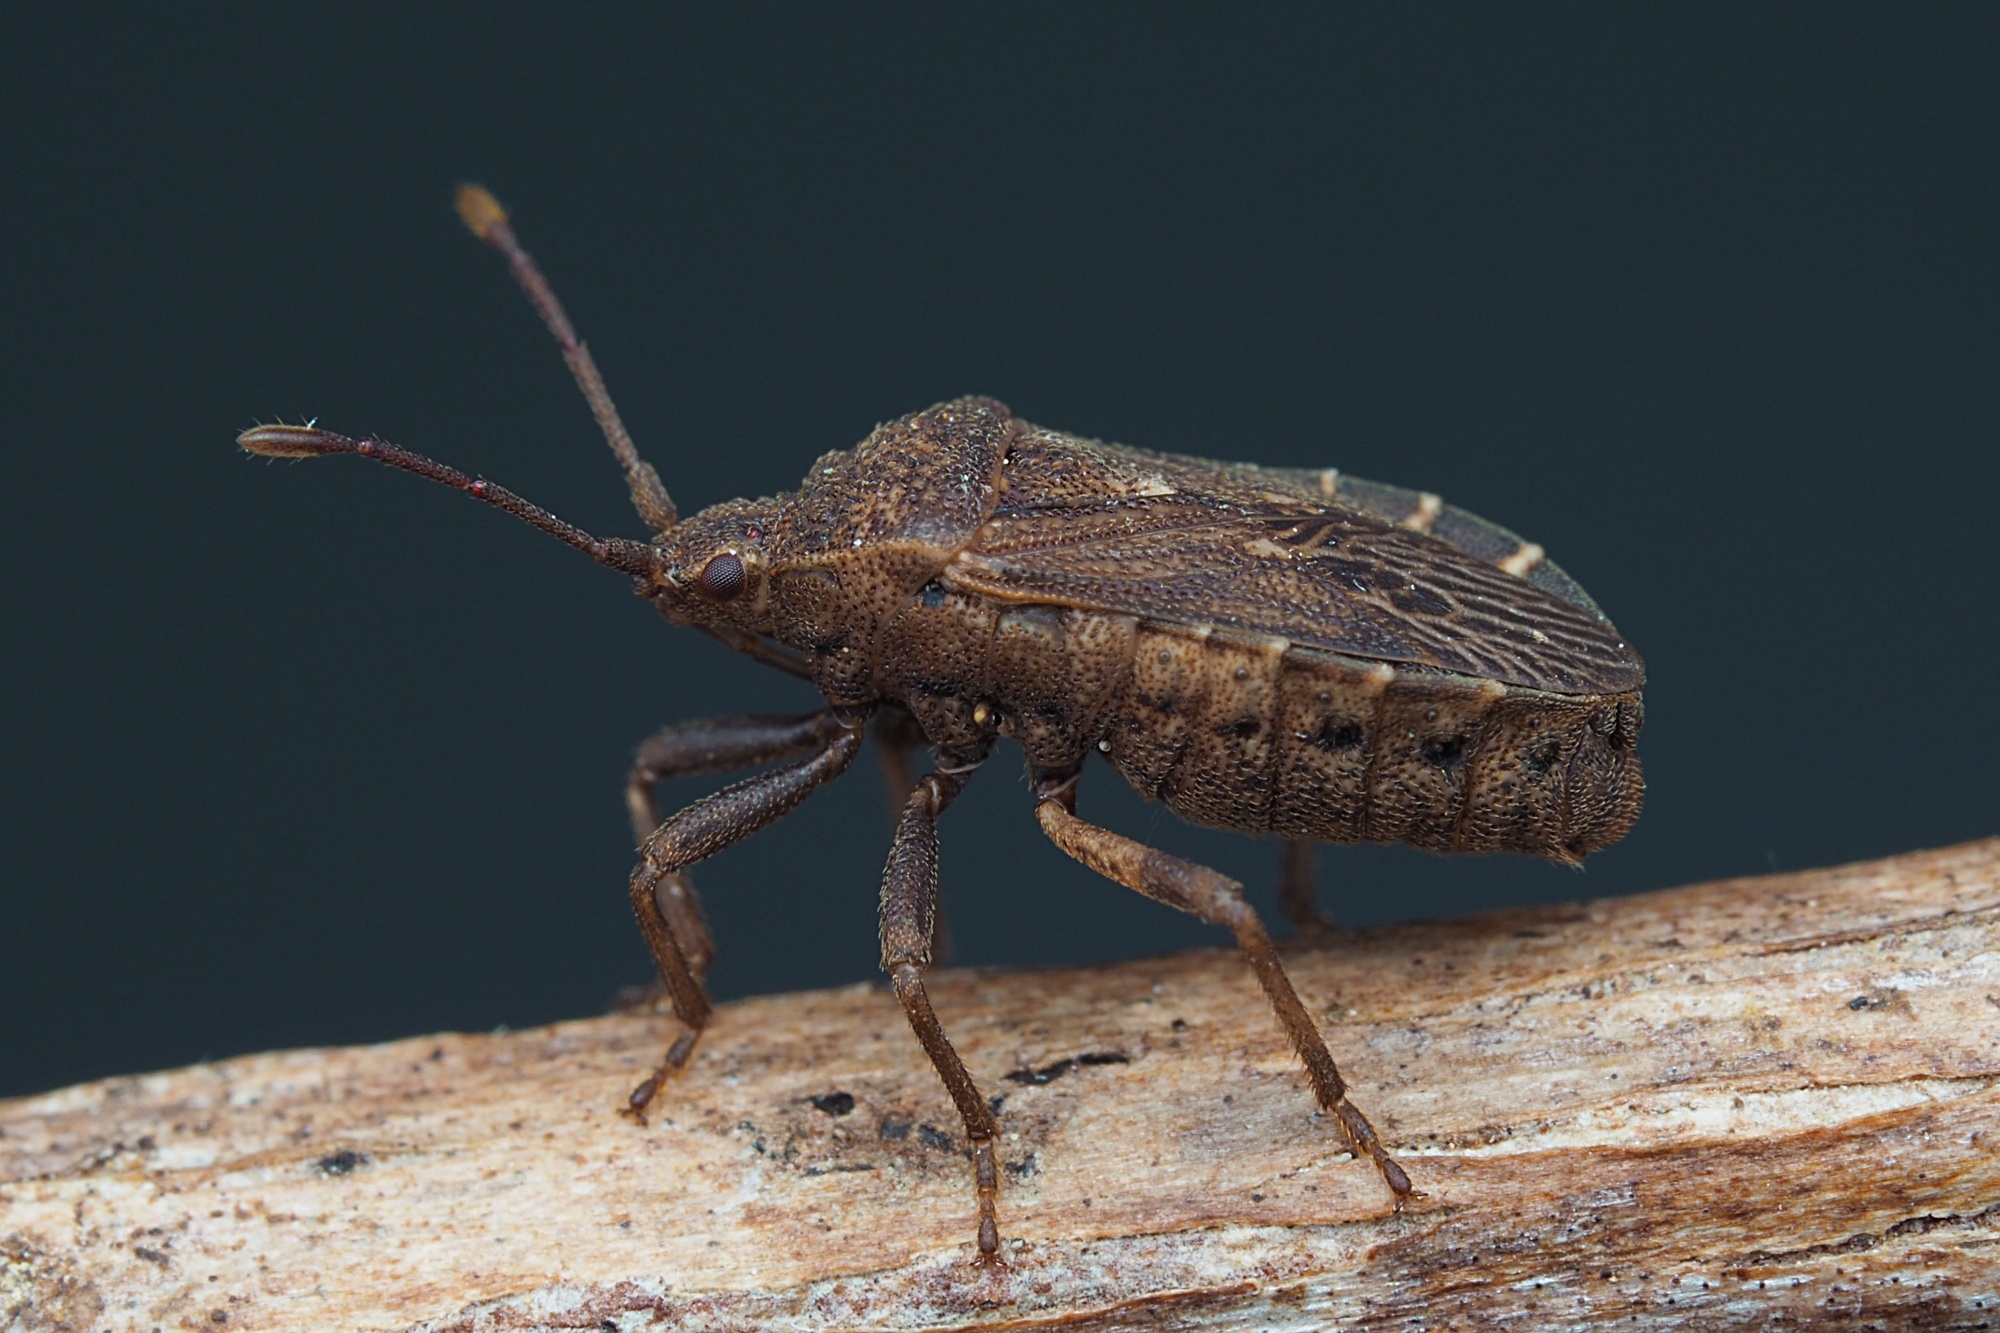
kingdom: Animalia
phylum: Arthropoda
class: Insecta
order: Hemiptera
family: Coreidae
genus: Acantholybas
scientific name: Acantholybas brunneus
